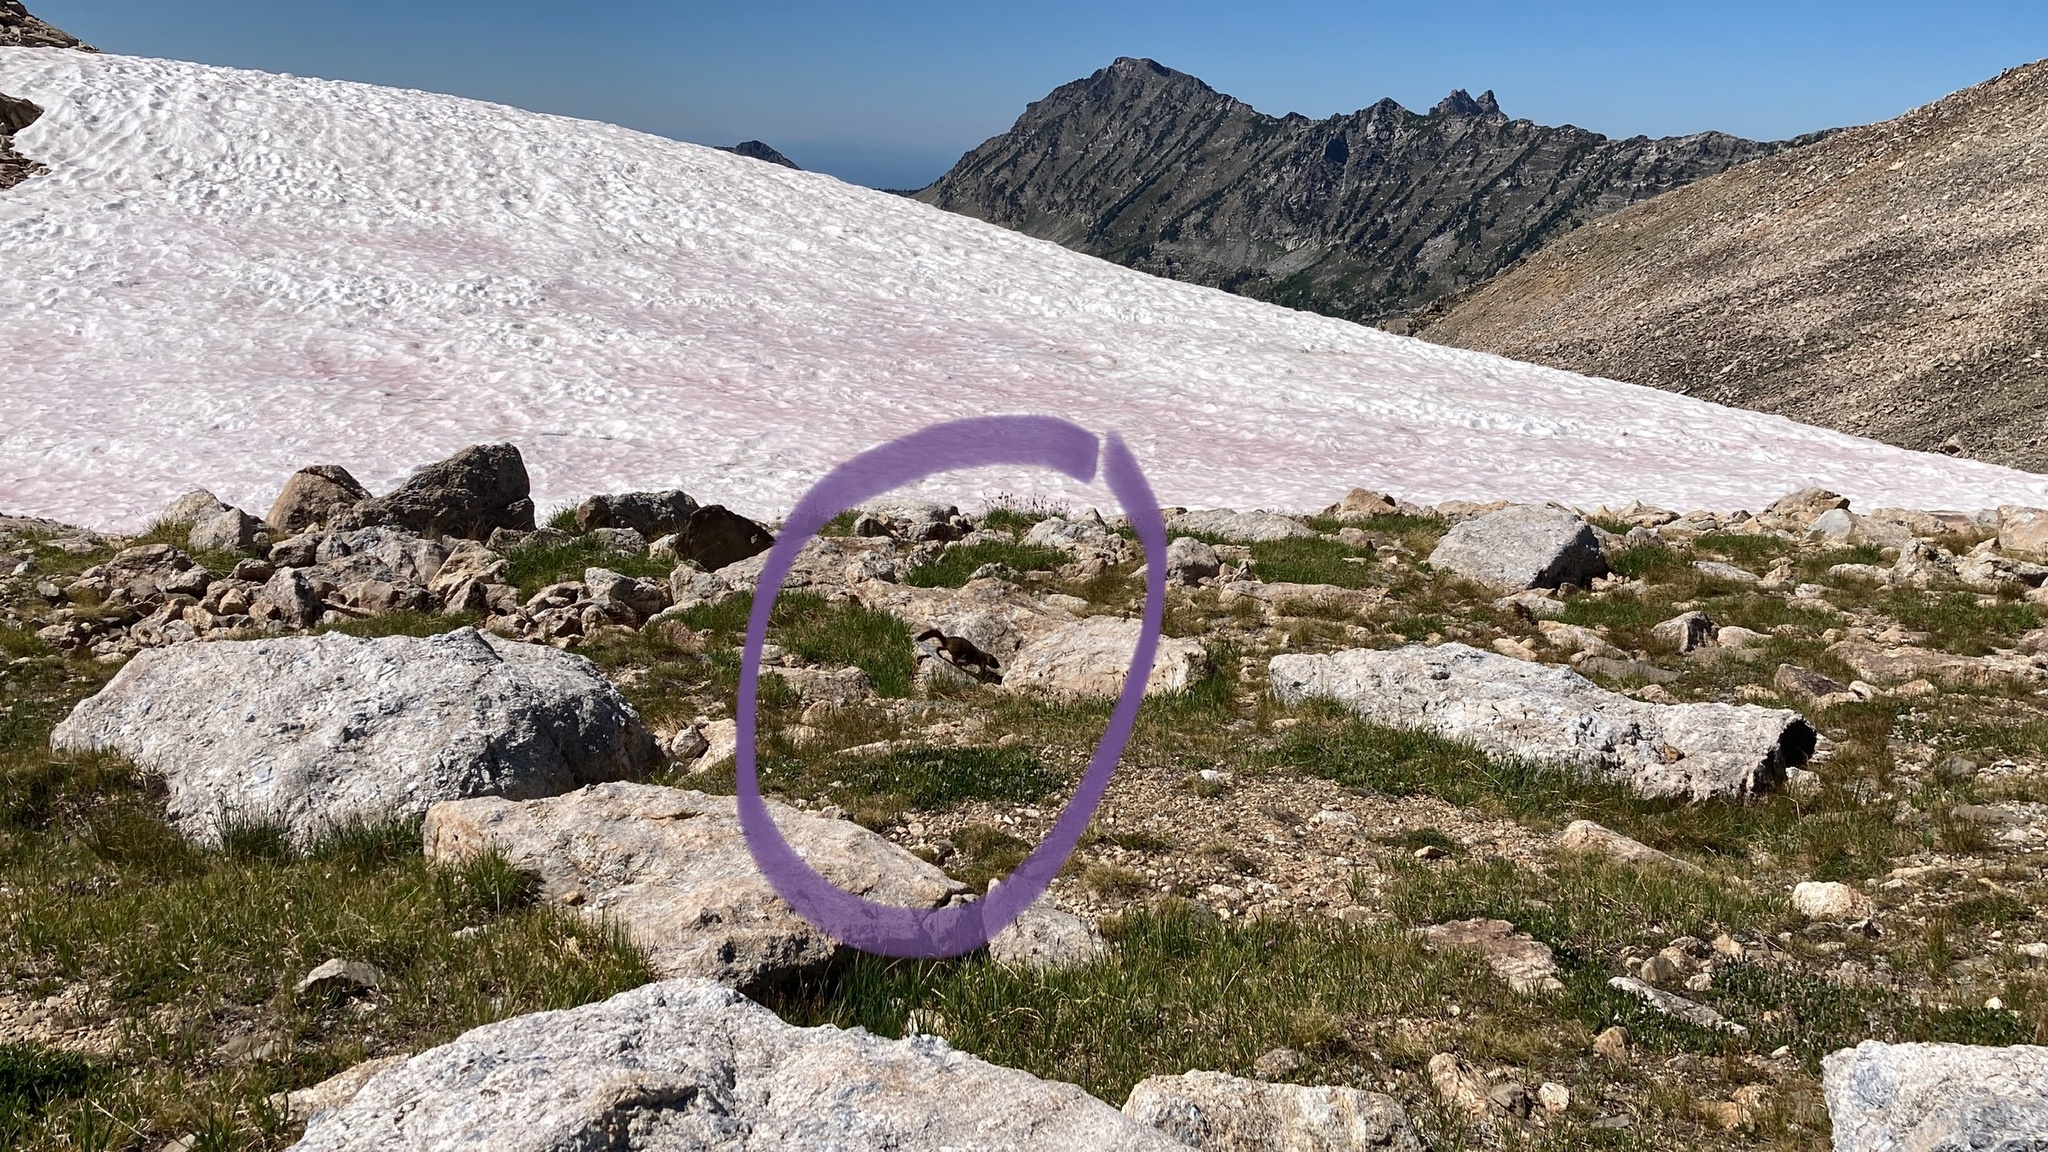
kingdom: Animalia
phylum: Chordata
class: Mammalia
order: Rodentia
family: Sciuridae
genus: Marmota
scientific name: Marmota flaviventris
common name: Yellow-bellied marmot
